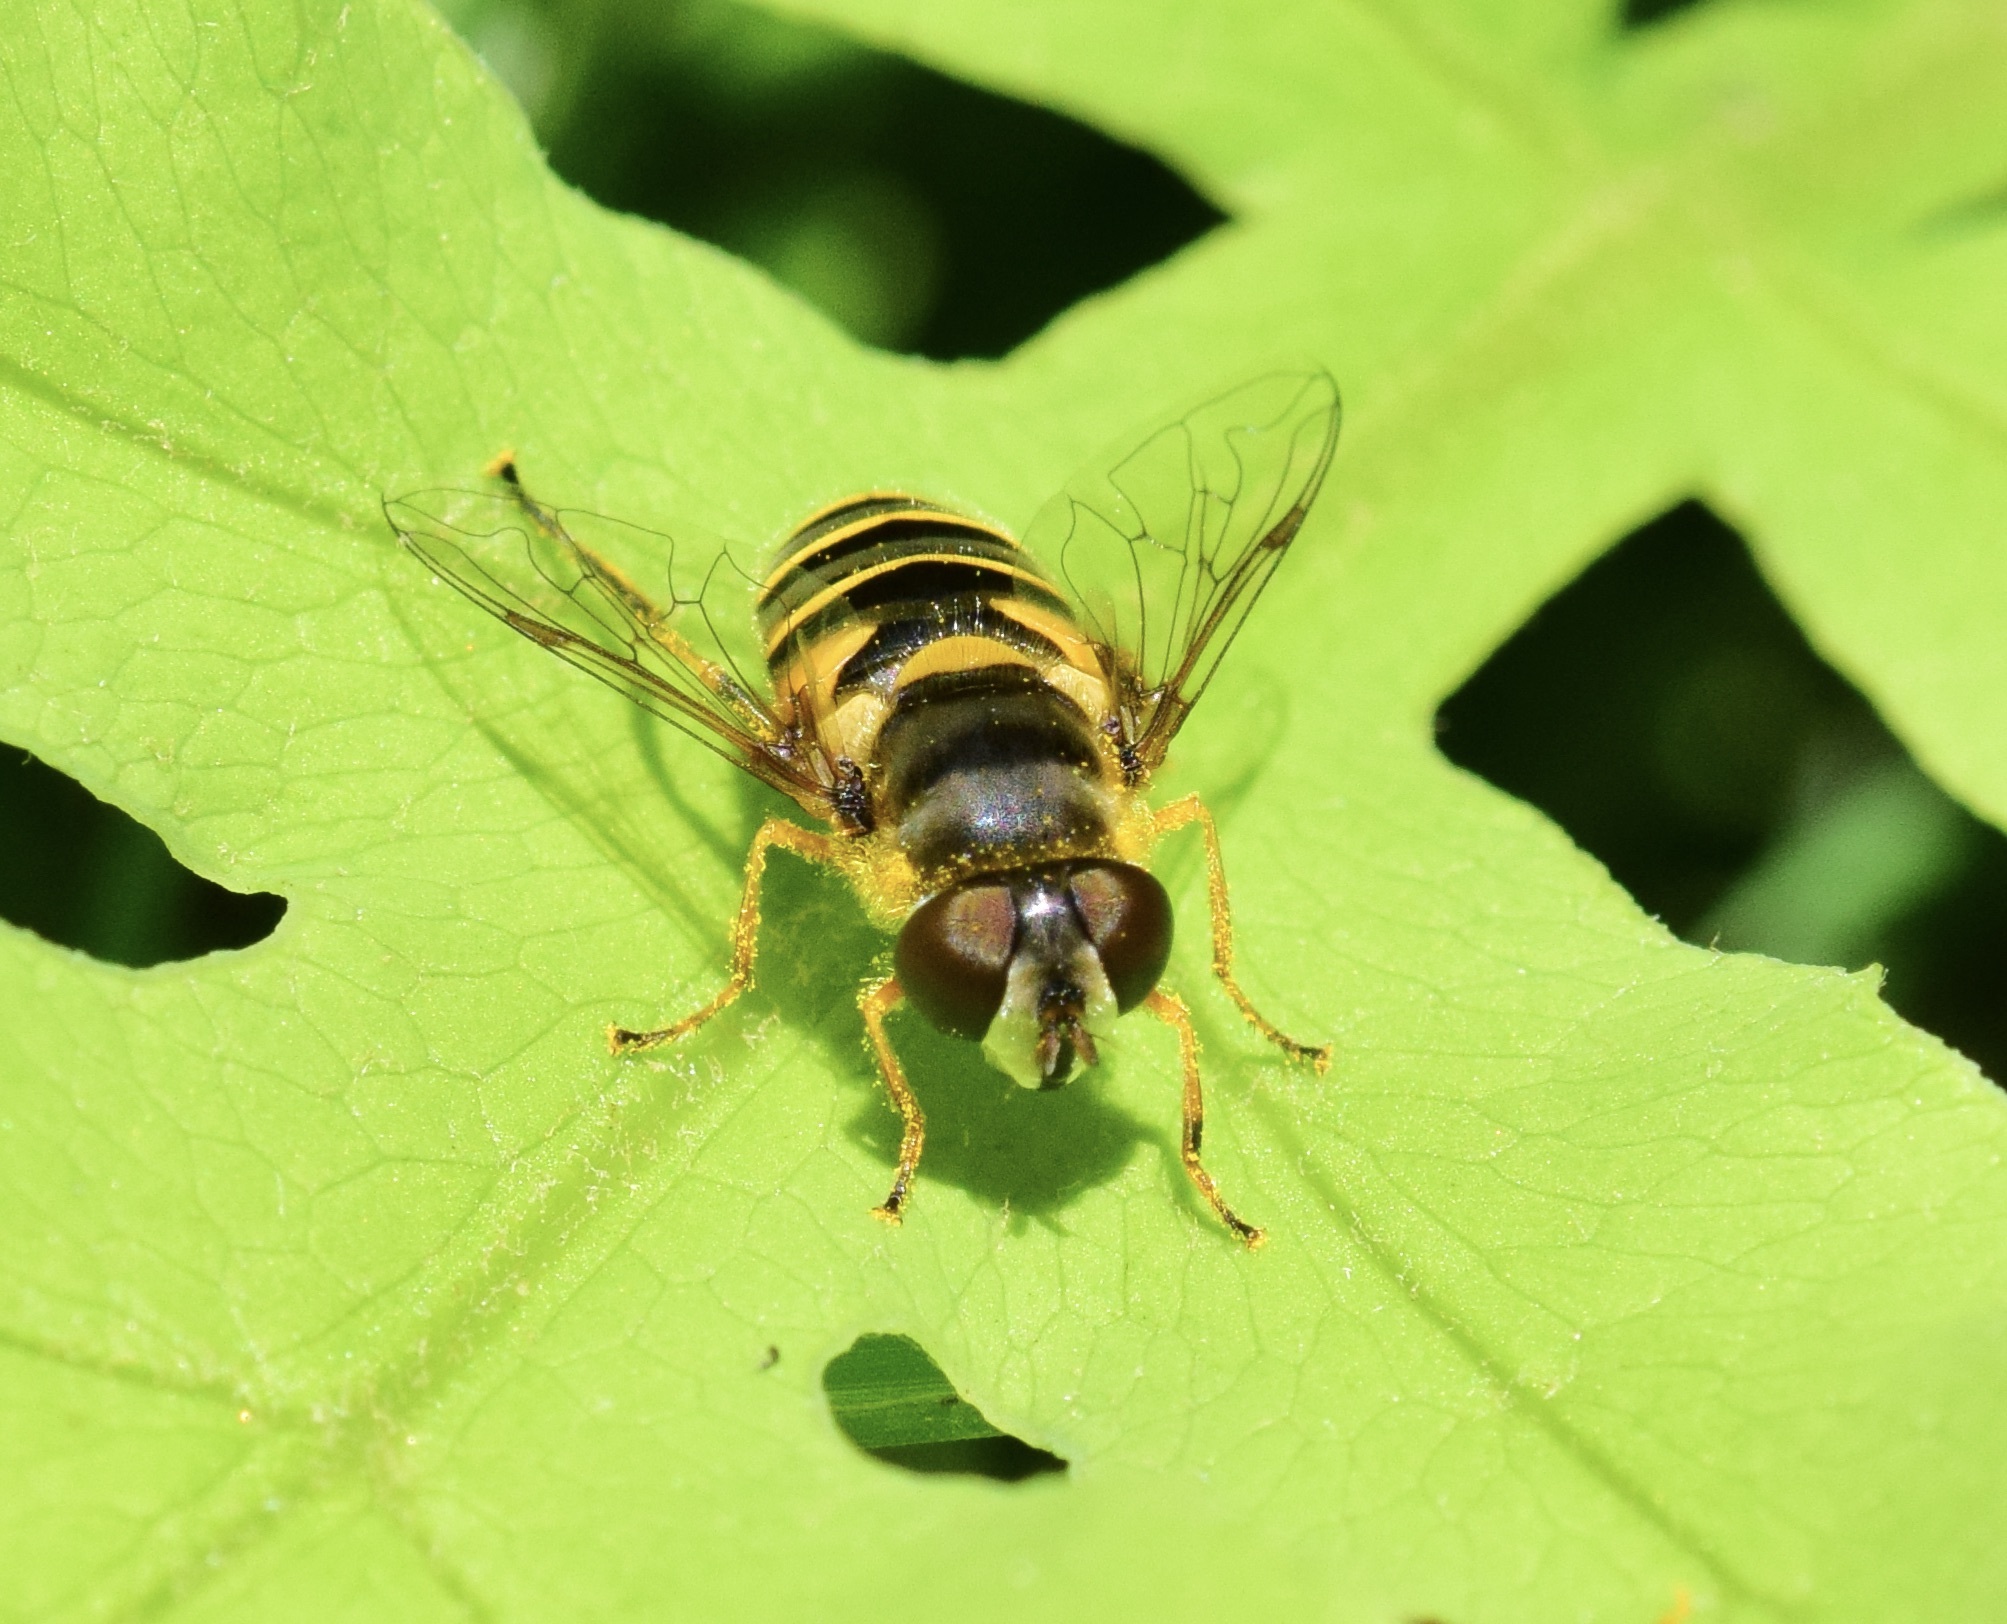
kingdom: Animalia
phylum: Arthropoda
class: Insecta
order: Diptera
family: Syrphidae
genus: Eristalis
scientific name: Eristalis transversa
